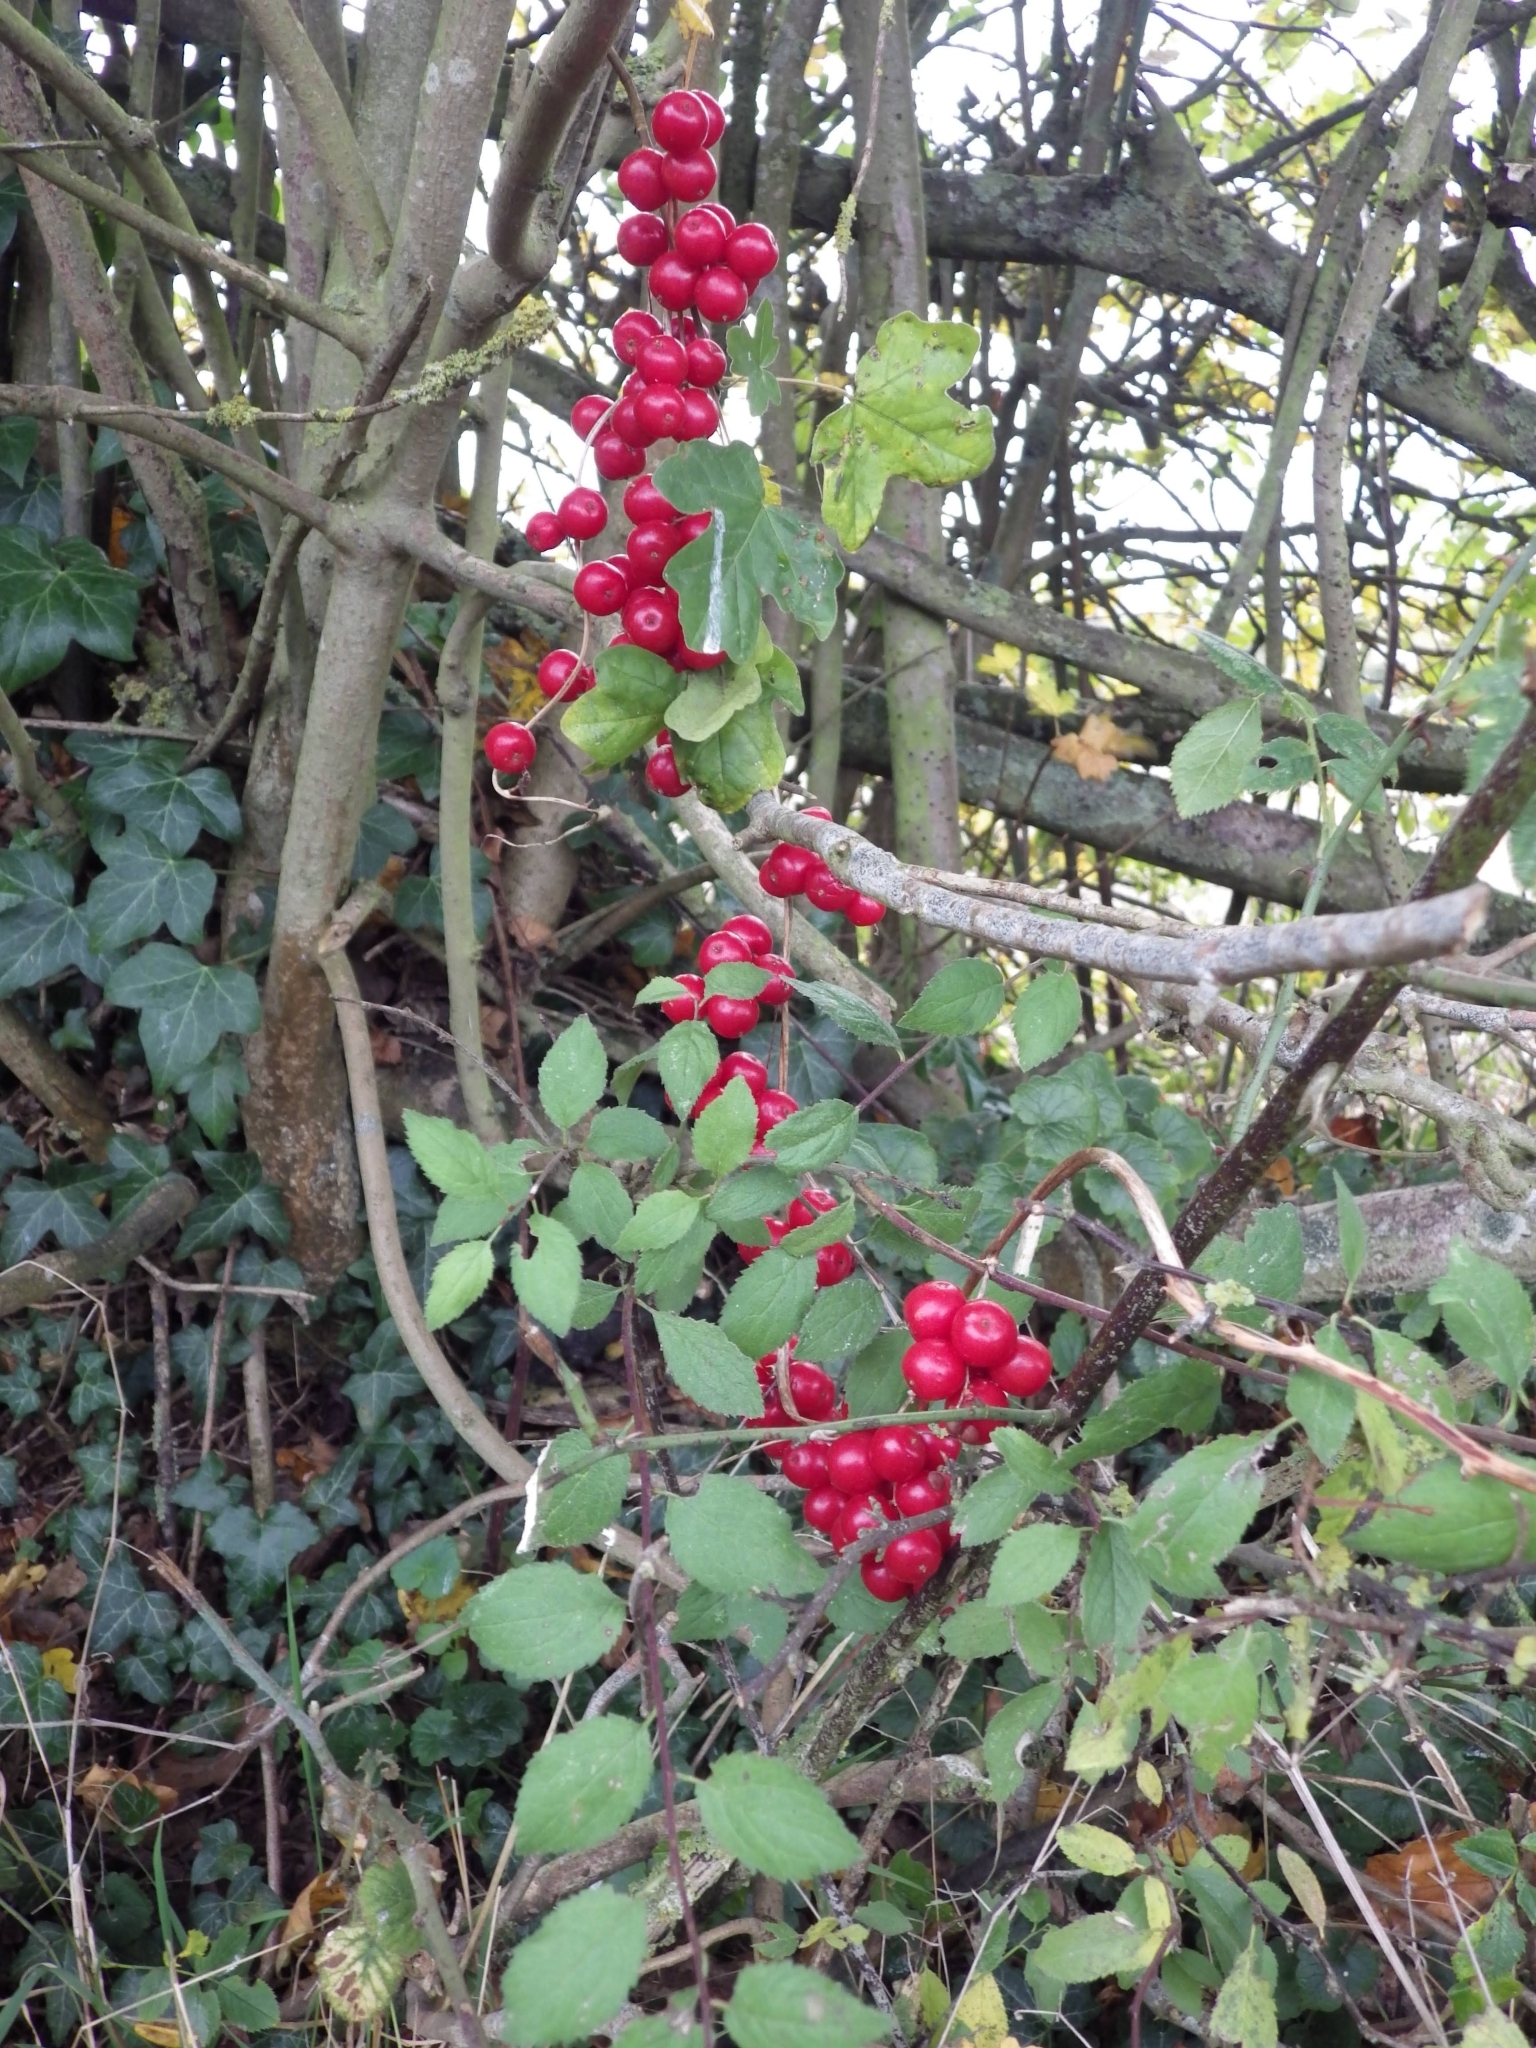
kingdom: Plantae
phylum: Tracheophyta
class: Magnoliopsida
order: Cucurbitales
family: Cucurbitaceae
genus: Bryonia
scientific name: Bryonia cretica
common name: Cretan bryony
